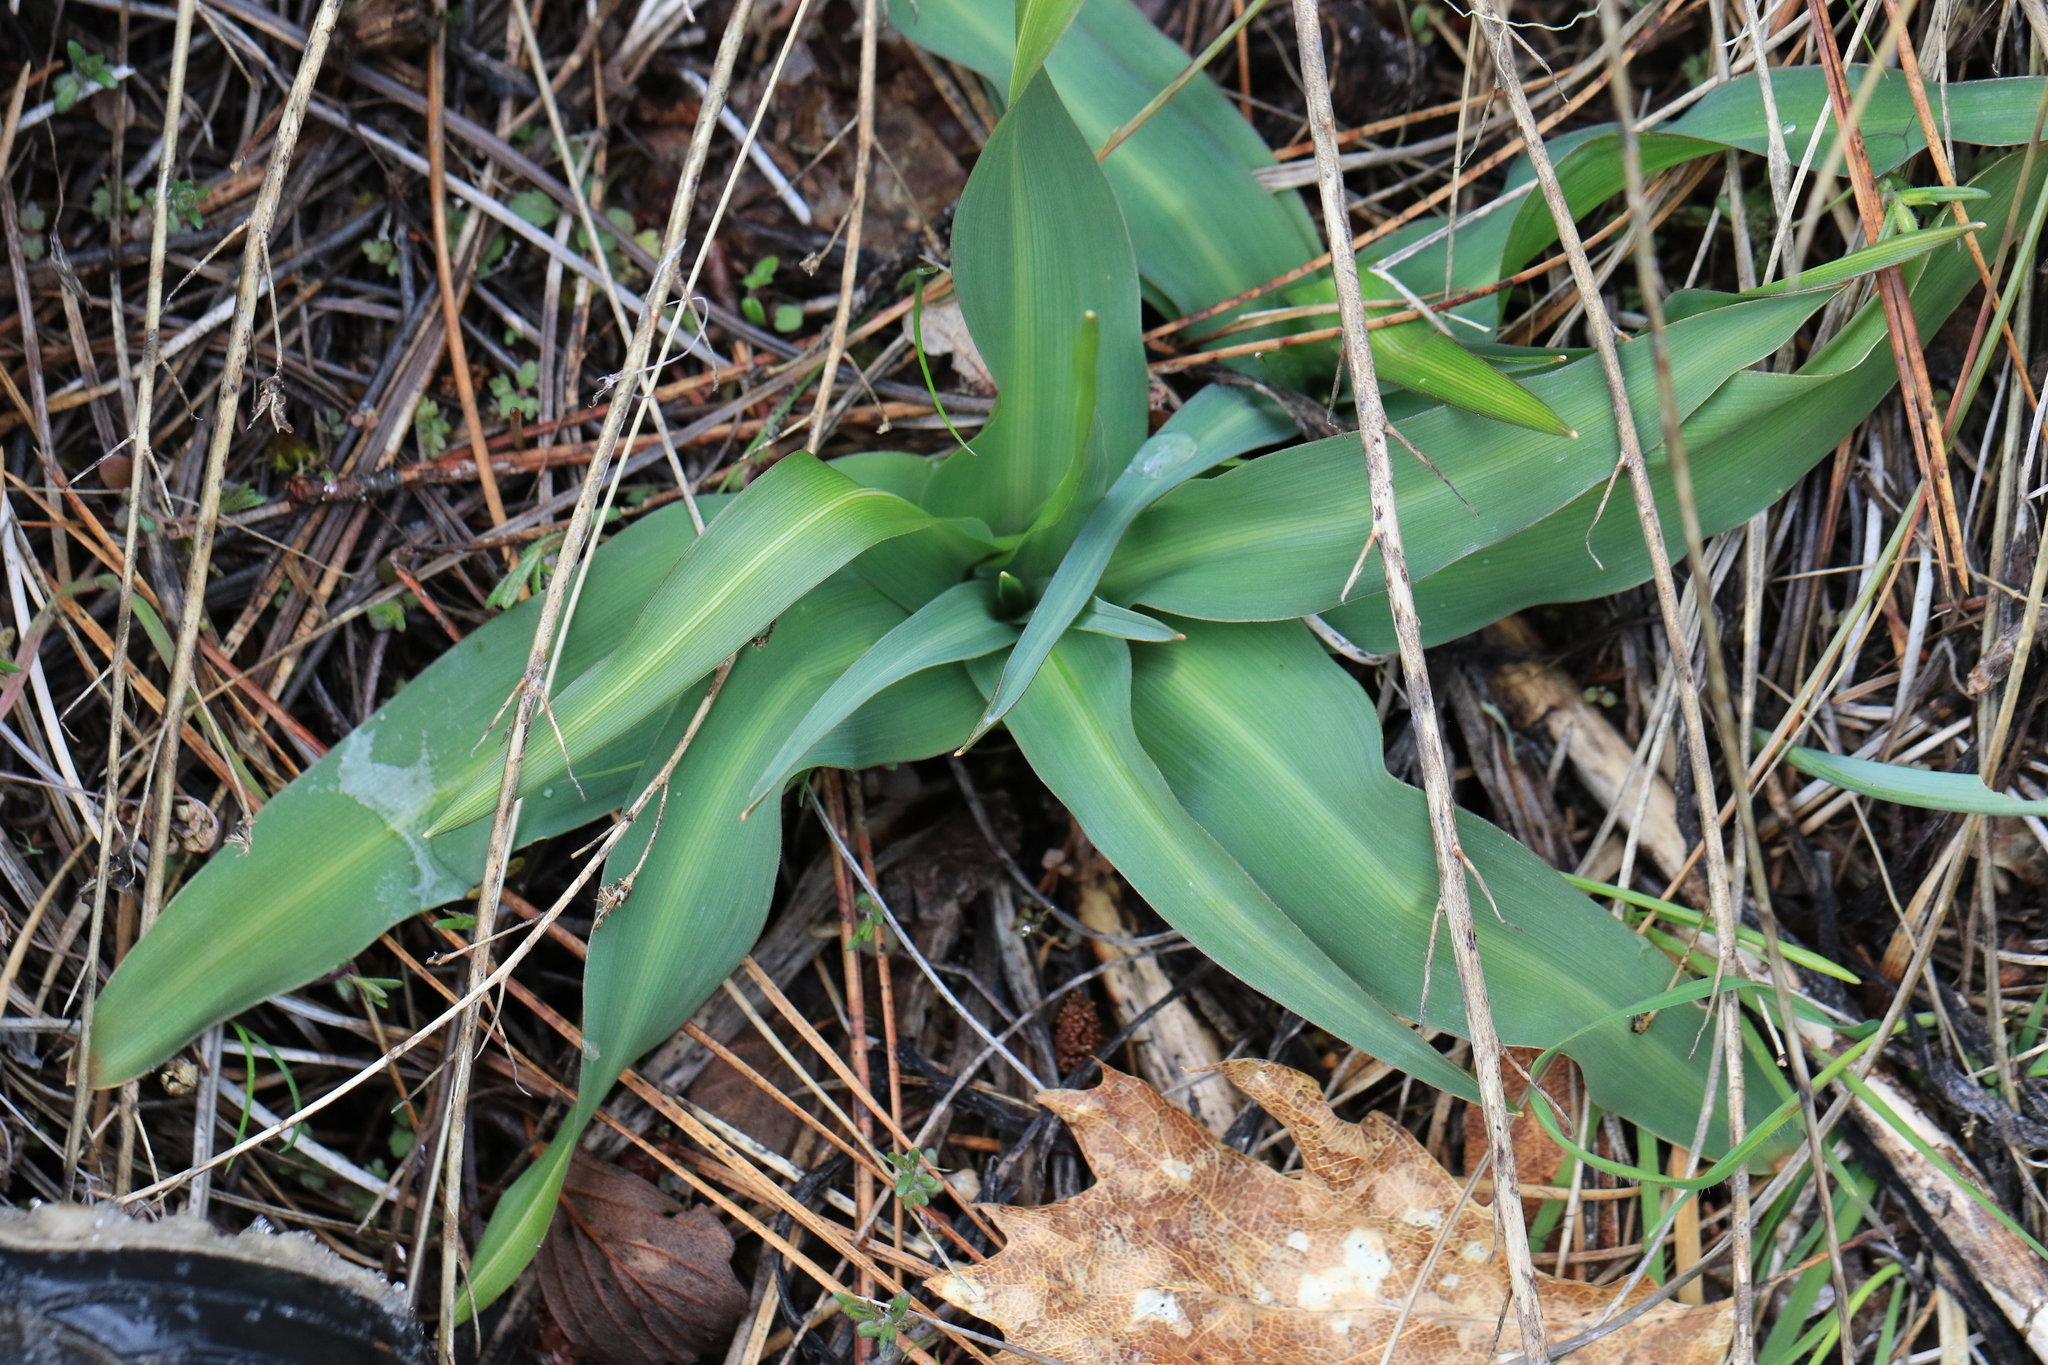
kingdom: Plantae
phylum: Tracheophyta
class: Liliopsida
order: Asparagales
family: Asparagaceae
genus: Chlorogalum
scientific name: Chlorogalum pomeridianum
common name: Amole
